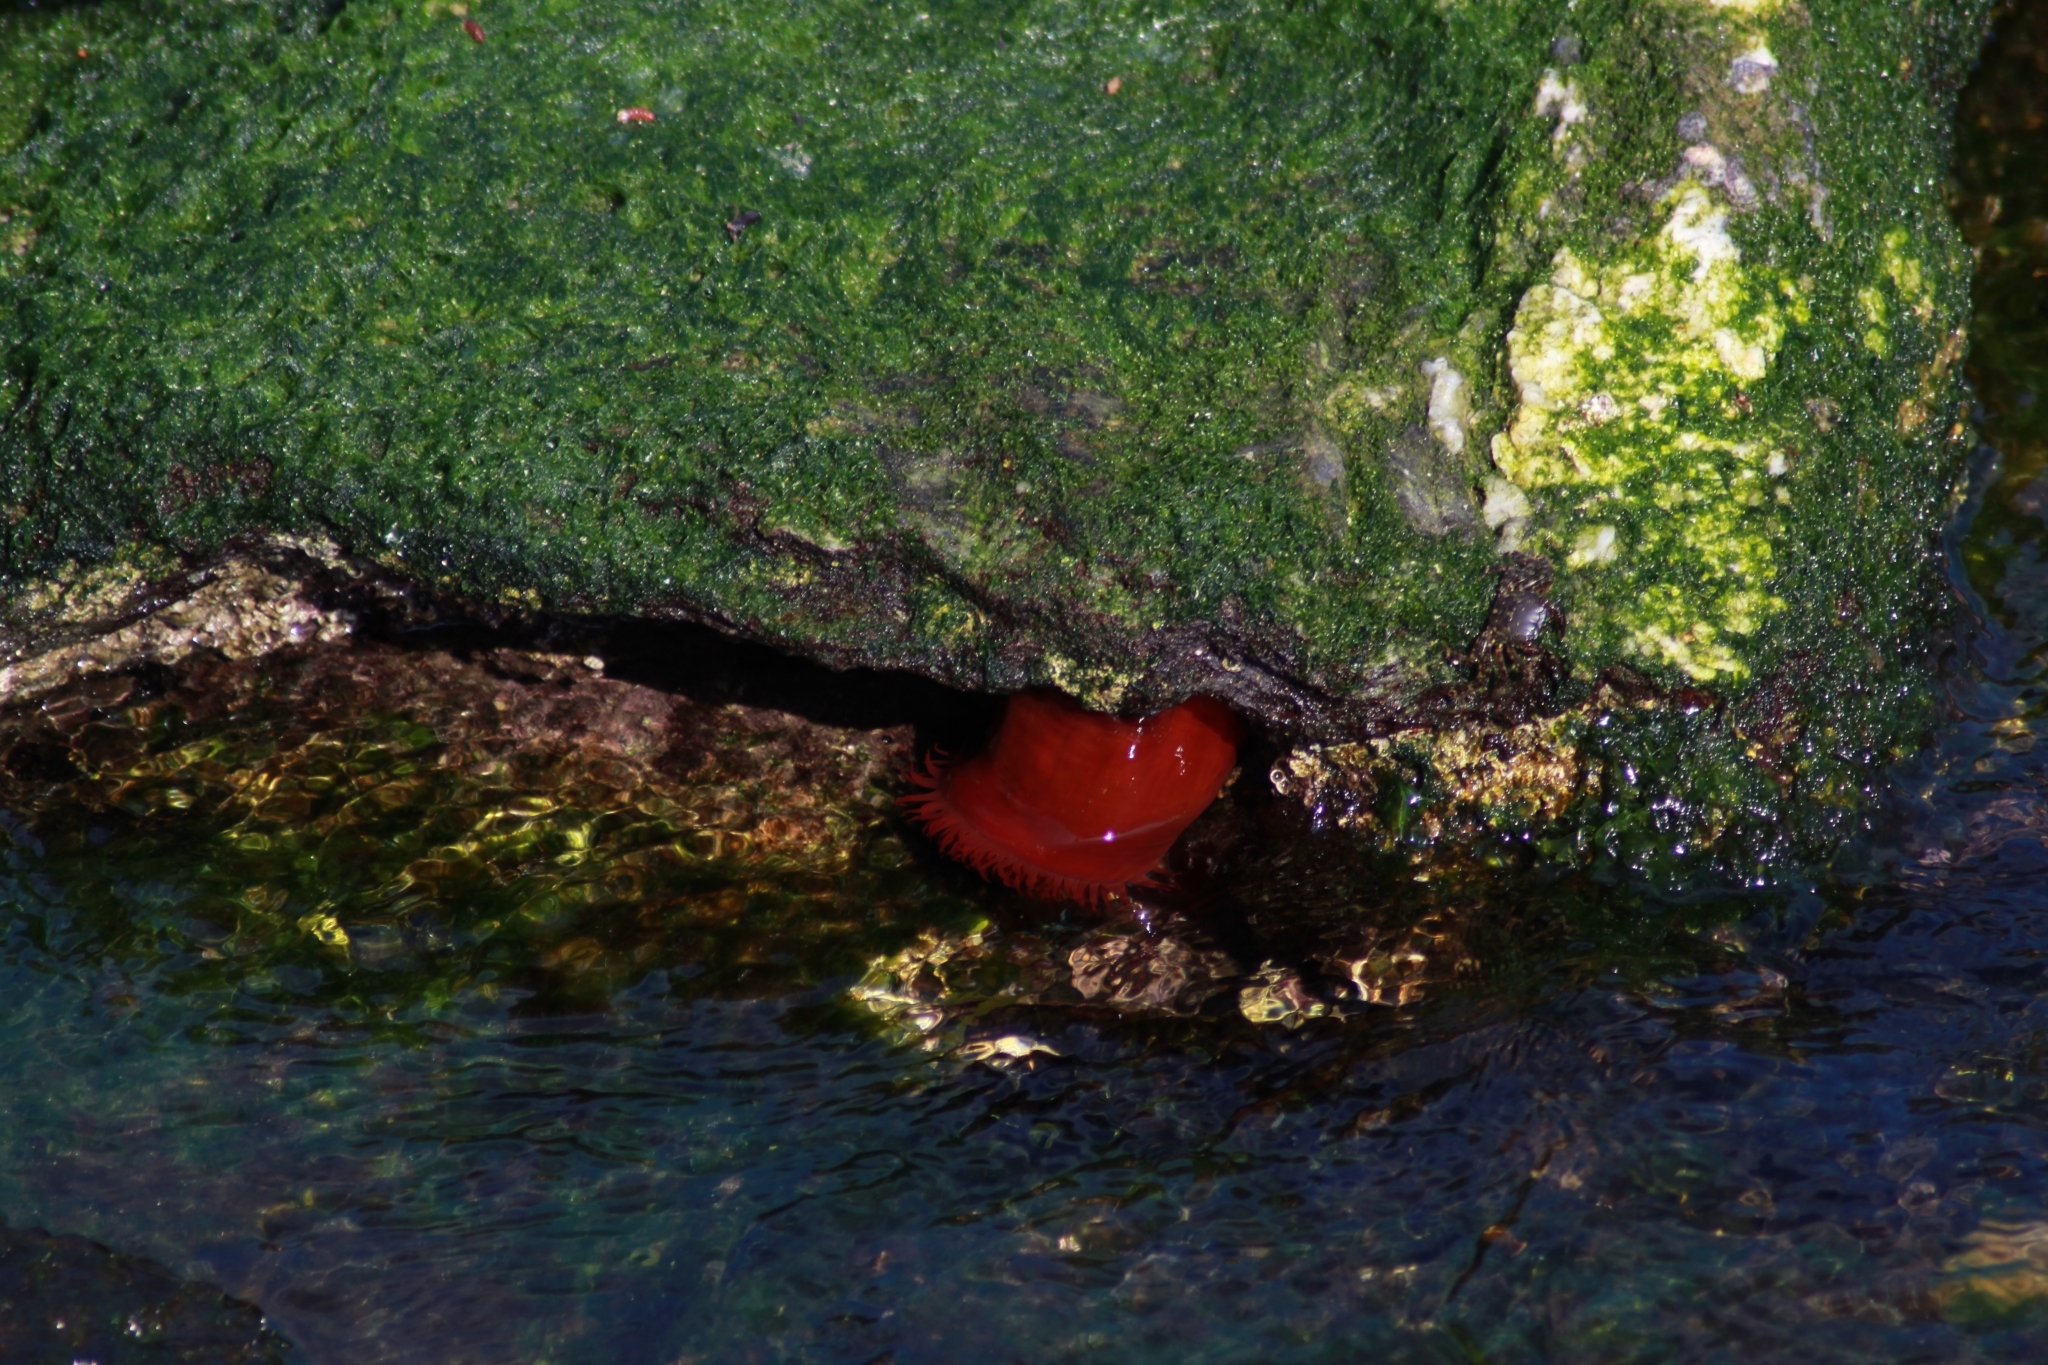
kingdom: Animalia
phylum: Cnidaria
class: Anthozoa
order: Actiniaria
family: Actiniidae
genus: Actinia
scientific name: Actinia mediterranea
